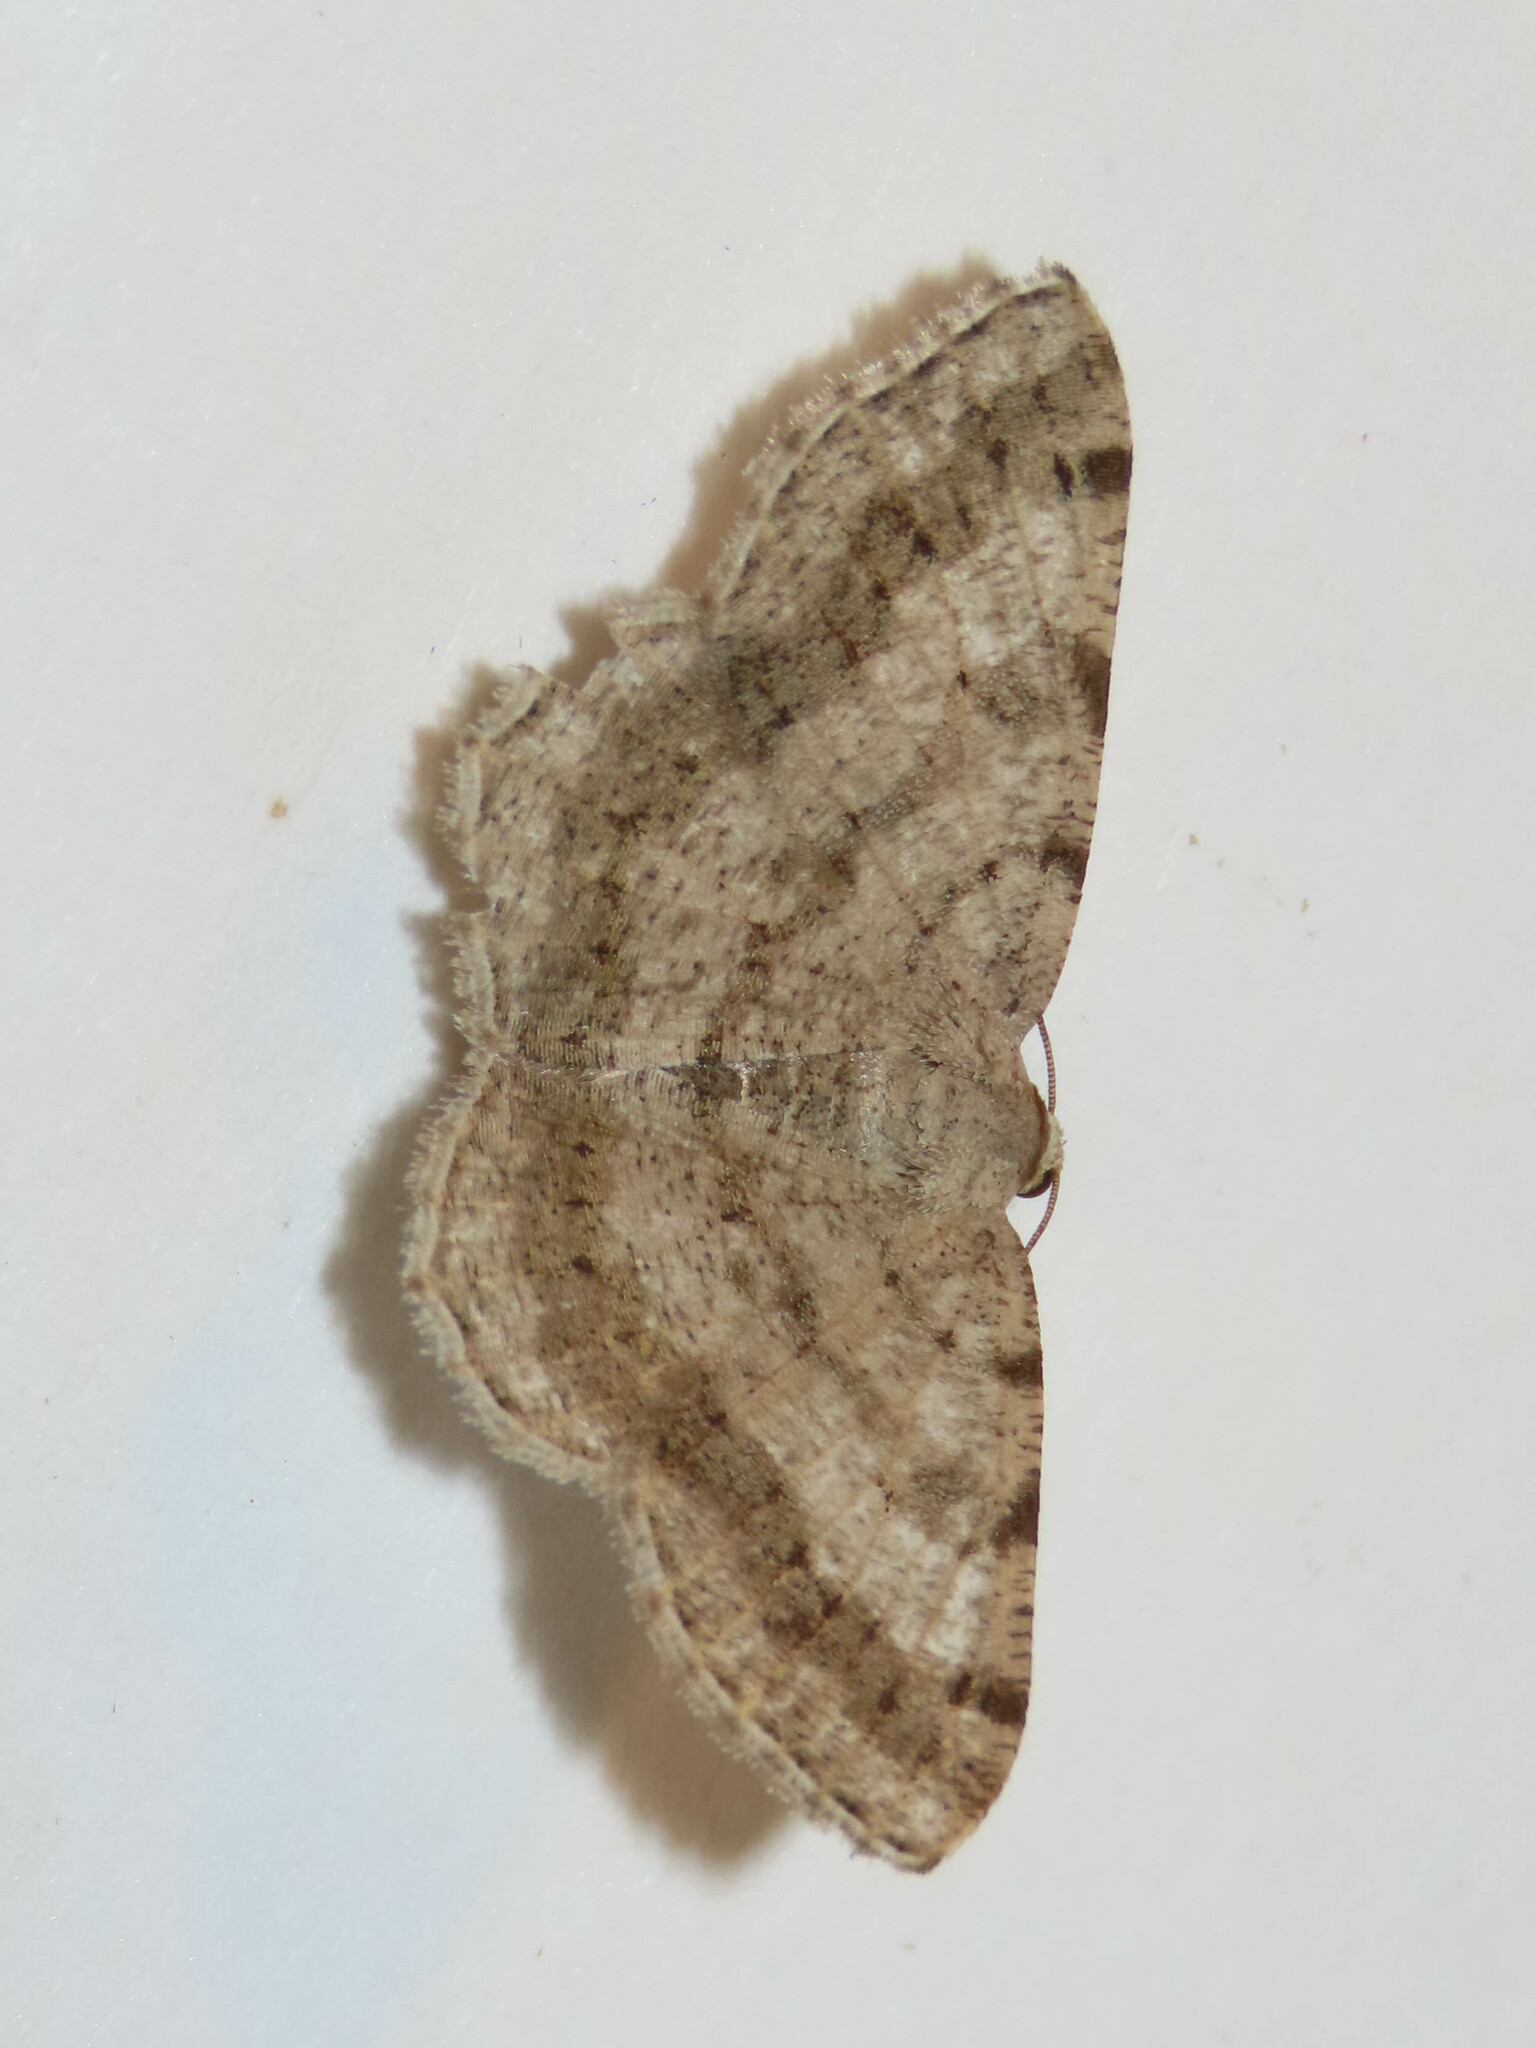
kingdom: Animalia
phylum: Arthropoda
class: Insecta
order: Lepidoptera
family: Geometridae
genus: Digrammia
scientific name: Digrammia ocellinata
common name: Faint-spotted angle
